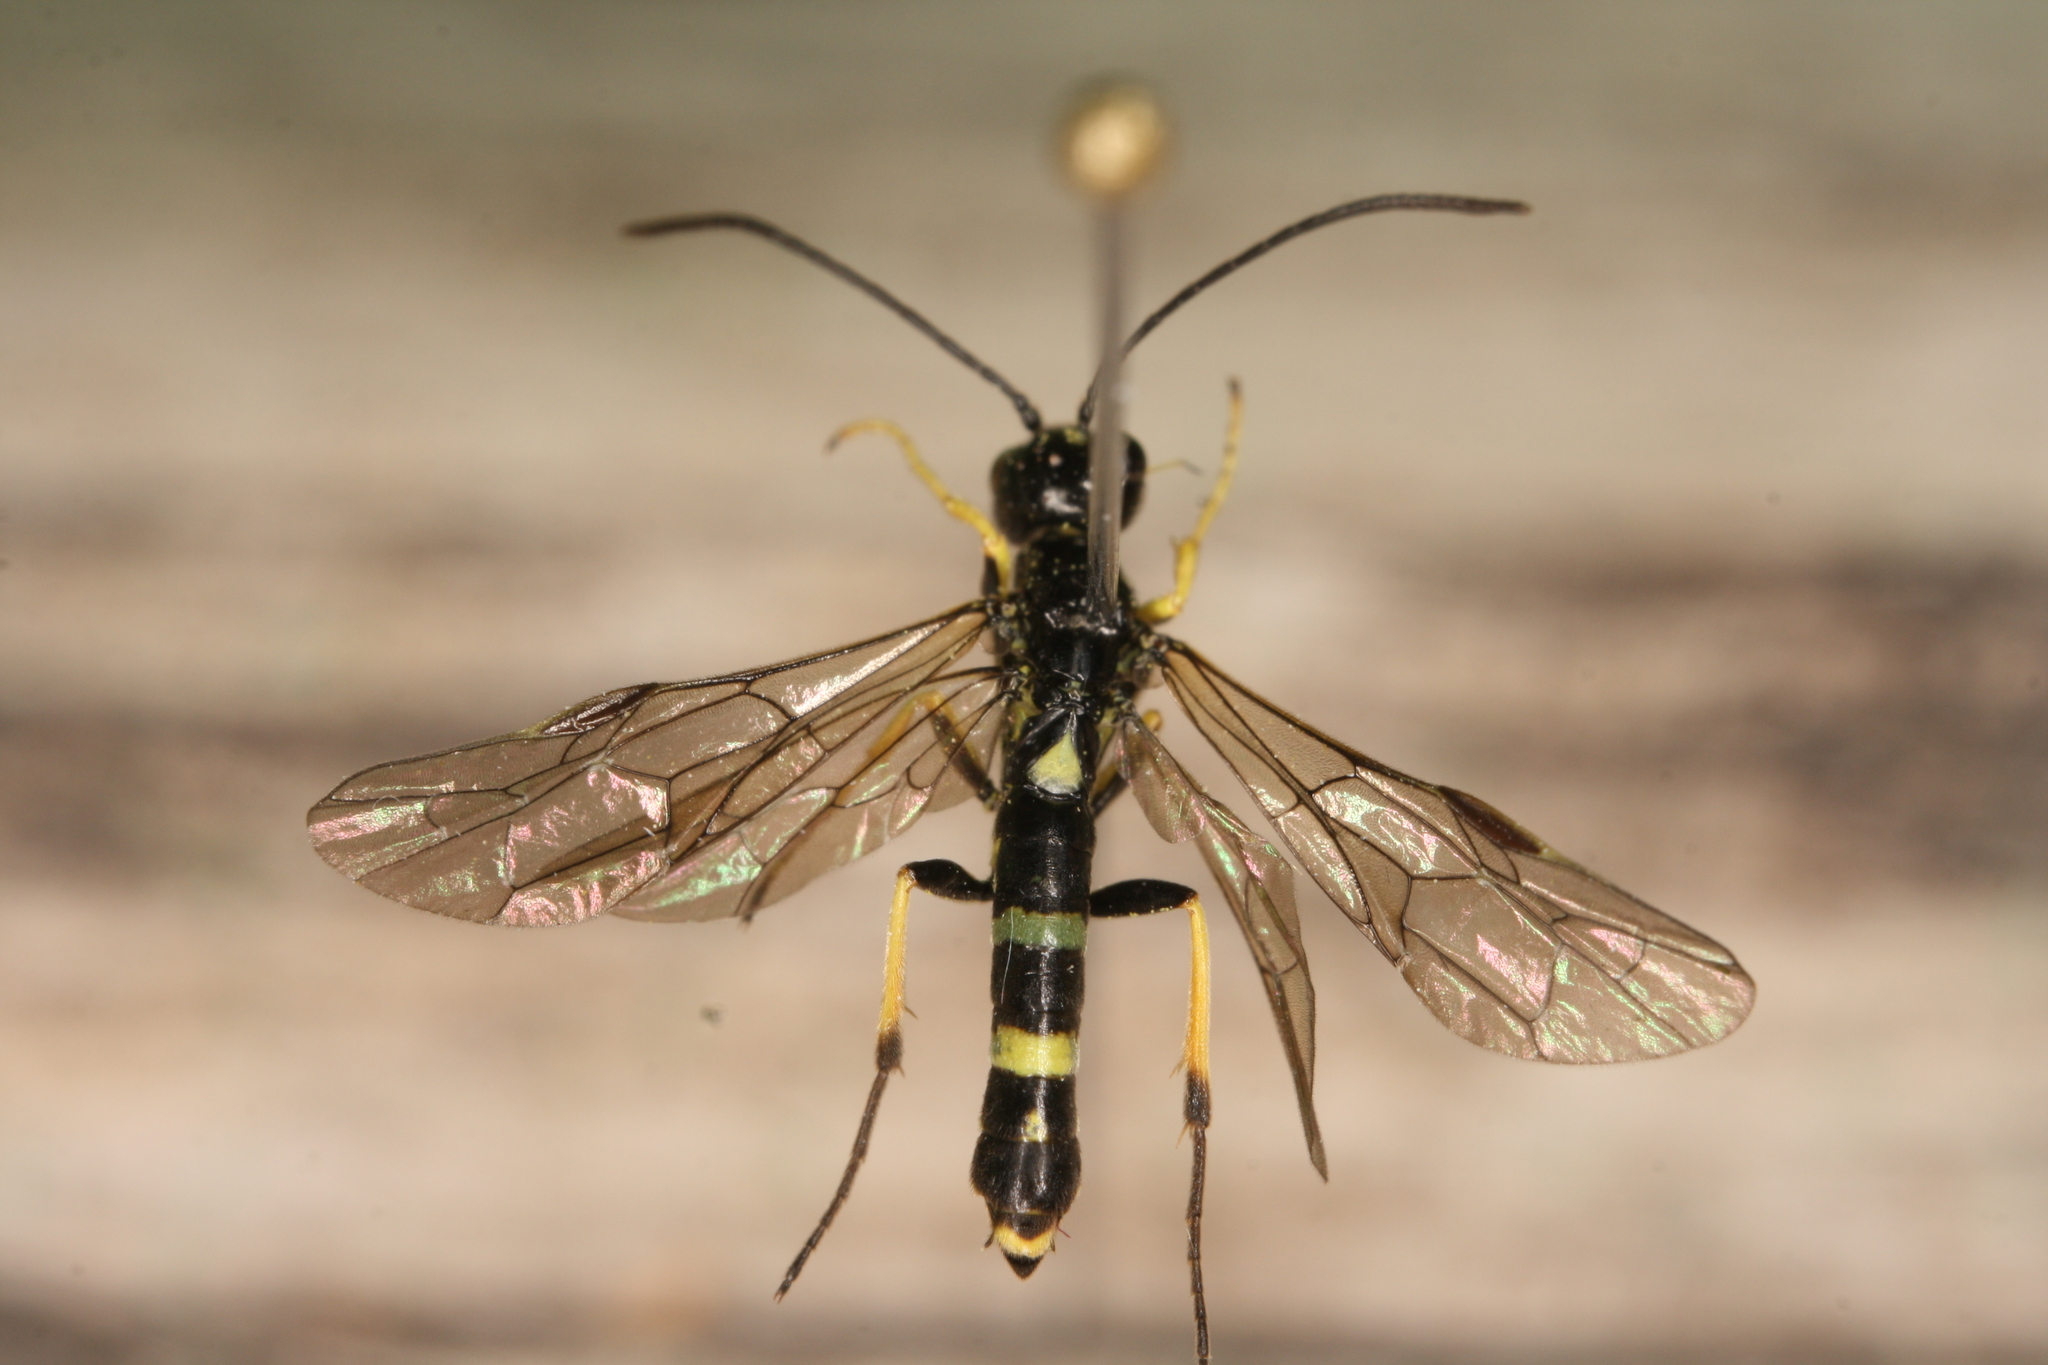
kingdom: Animalia
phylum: Arthropoda
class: Insecta
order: Hymenoptera
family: Cephidae
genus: Cephus
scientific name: Cephus spinipes
